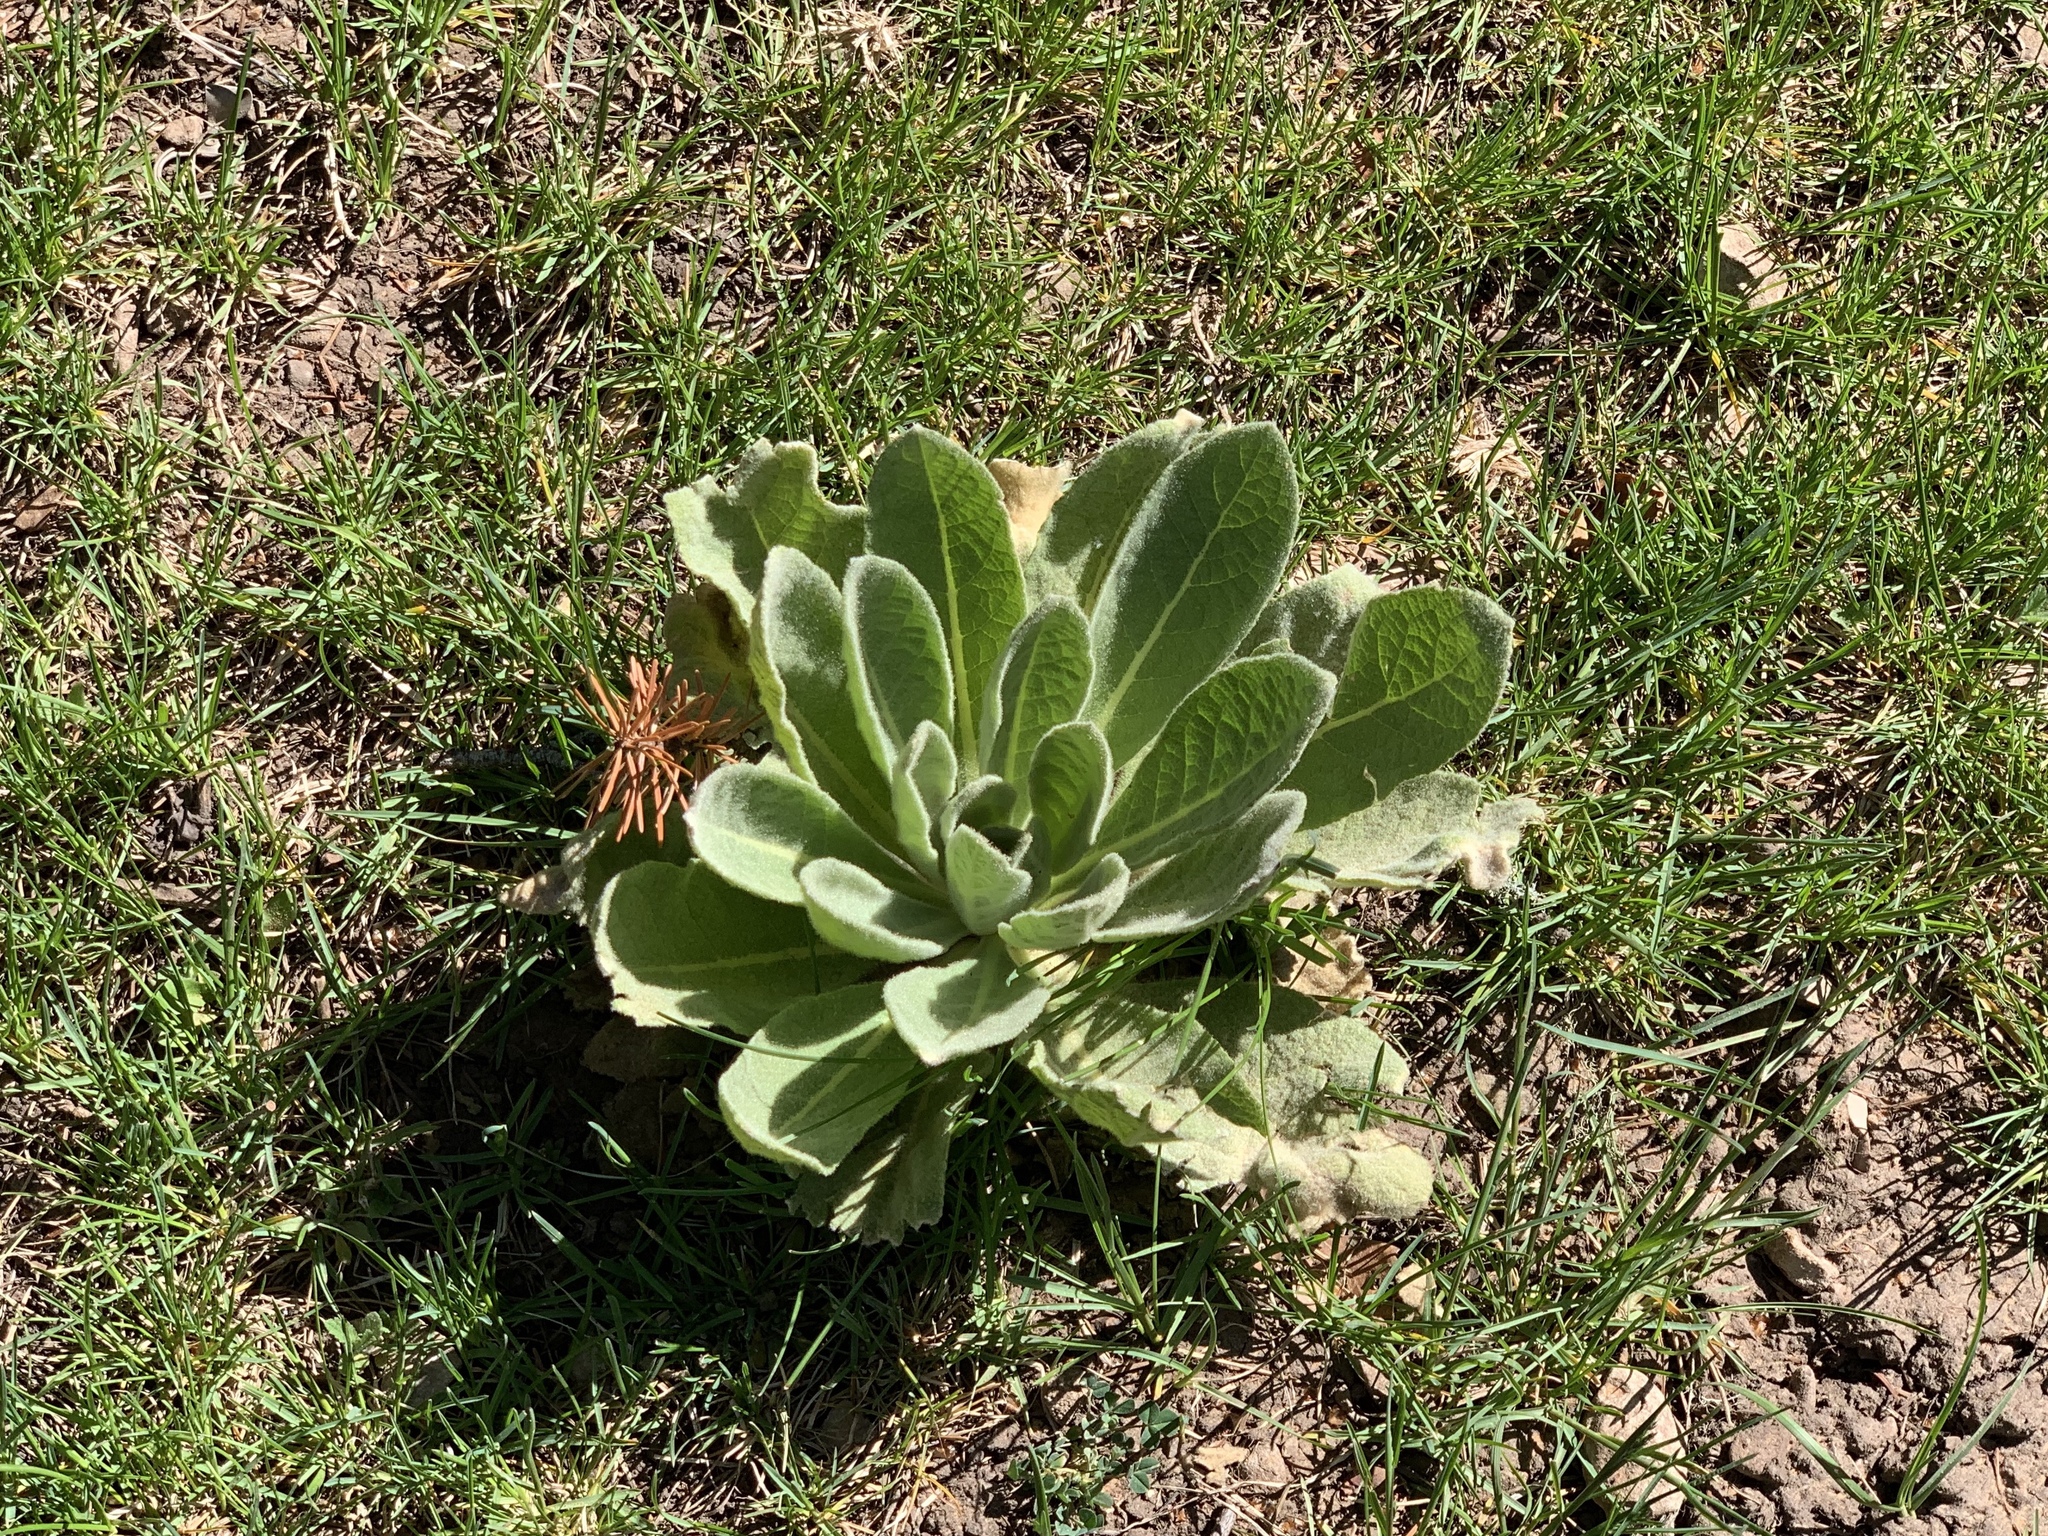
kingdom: Plantae
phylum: Tracheophyta
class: Magnoliopsida
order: Lamiales
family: Scrophulariaceae
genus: Verbascum
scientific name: Verbascum thapsus
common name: Common mullein
